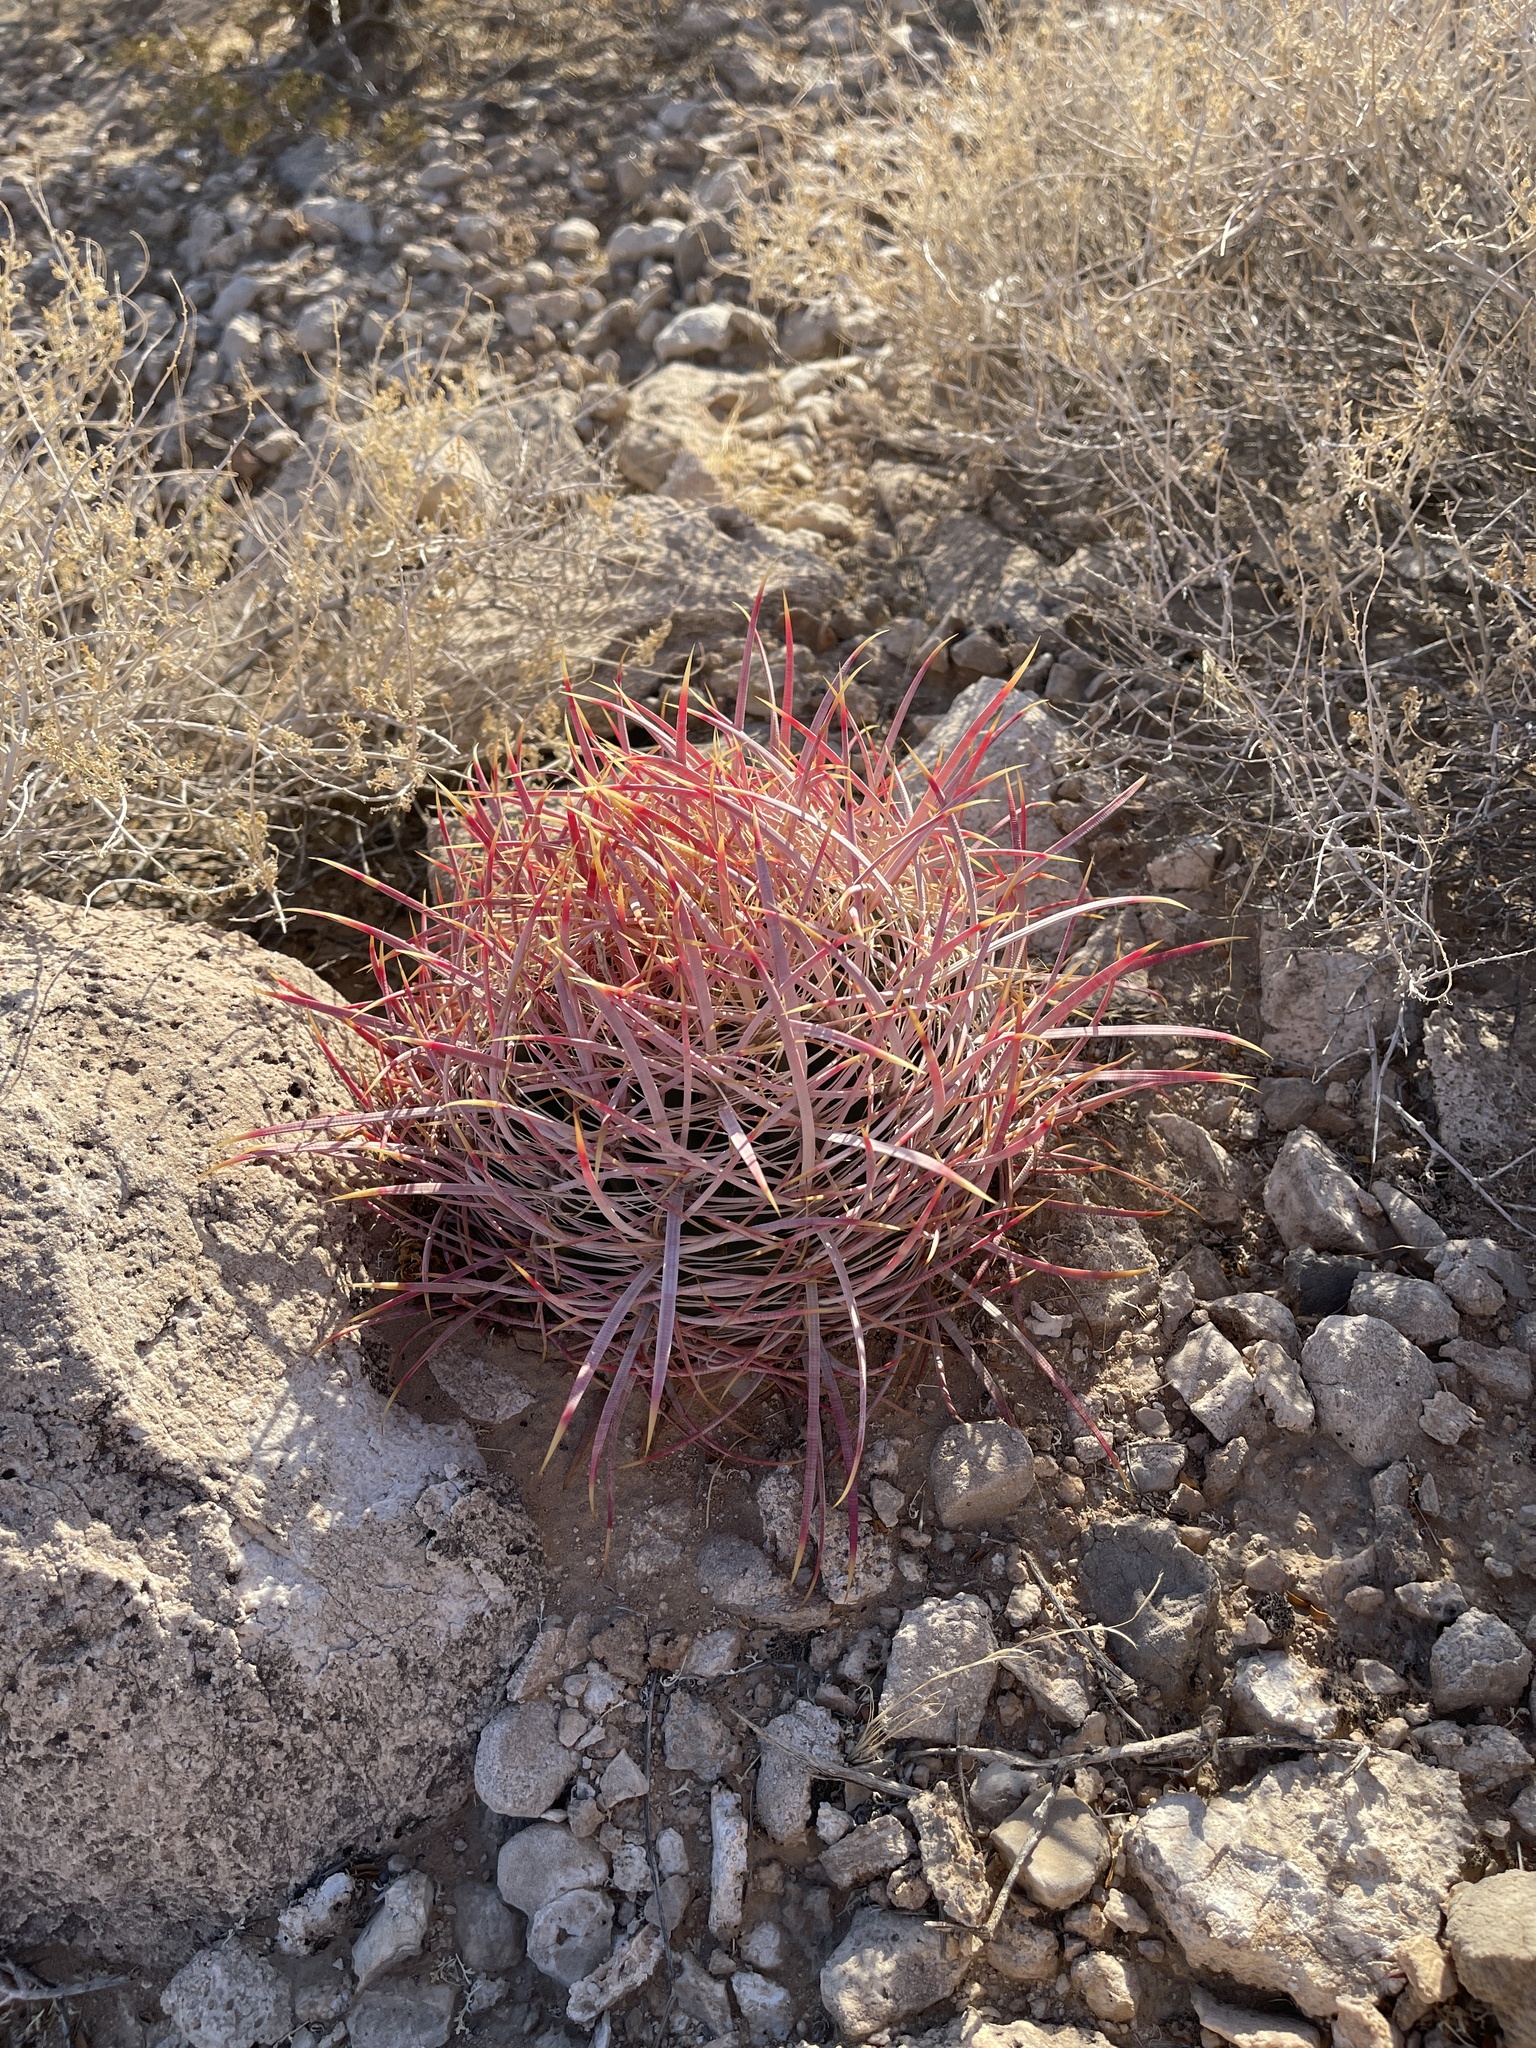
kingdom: Plantae
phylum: Tracheophyta
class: Magnoliopsida
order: Caryophyllales
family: Cactaceae
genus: Ferocactus
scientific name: Ferocactus cylindraceus
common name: California barrel cactus
